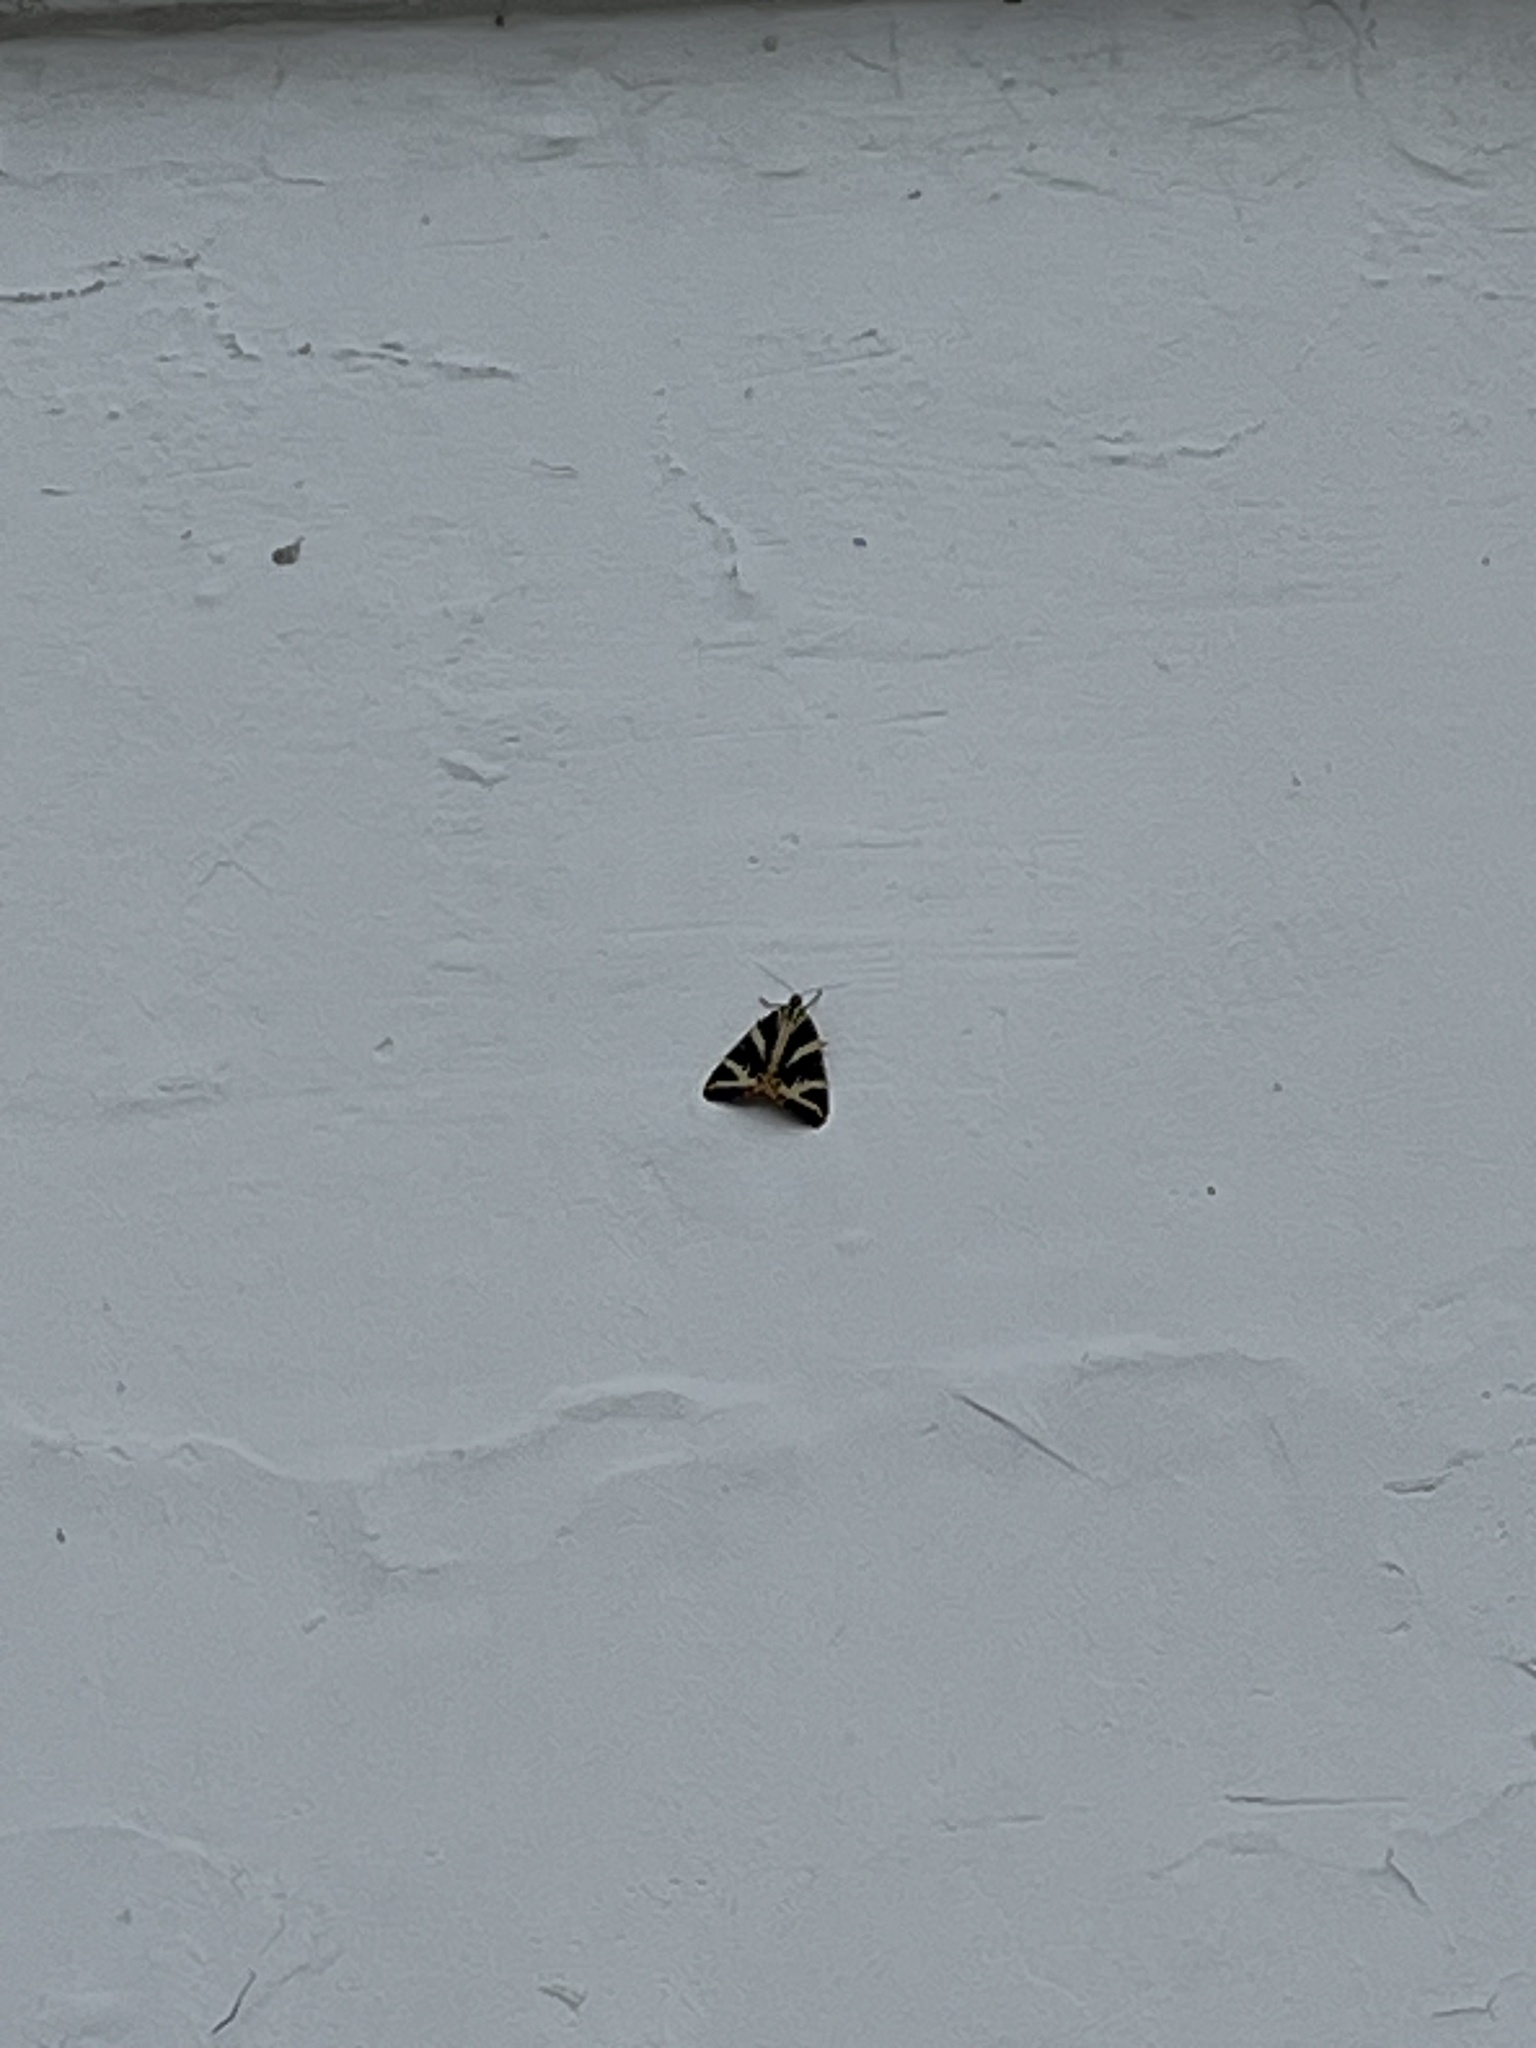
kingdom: Animalia
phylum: Arthropoda
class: Insecta
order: Lepidoptera
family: Erebidae
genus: Euplagia
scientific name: Euplagia quadripunctaria
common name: Jersey tiger
